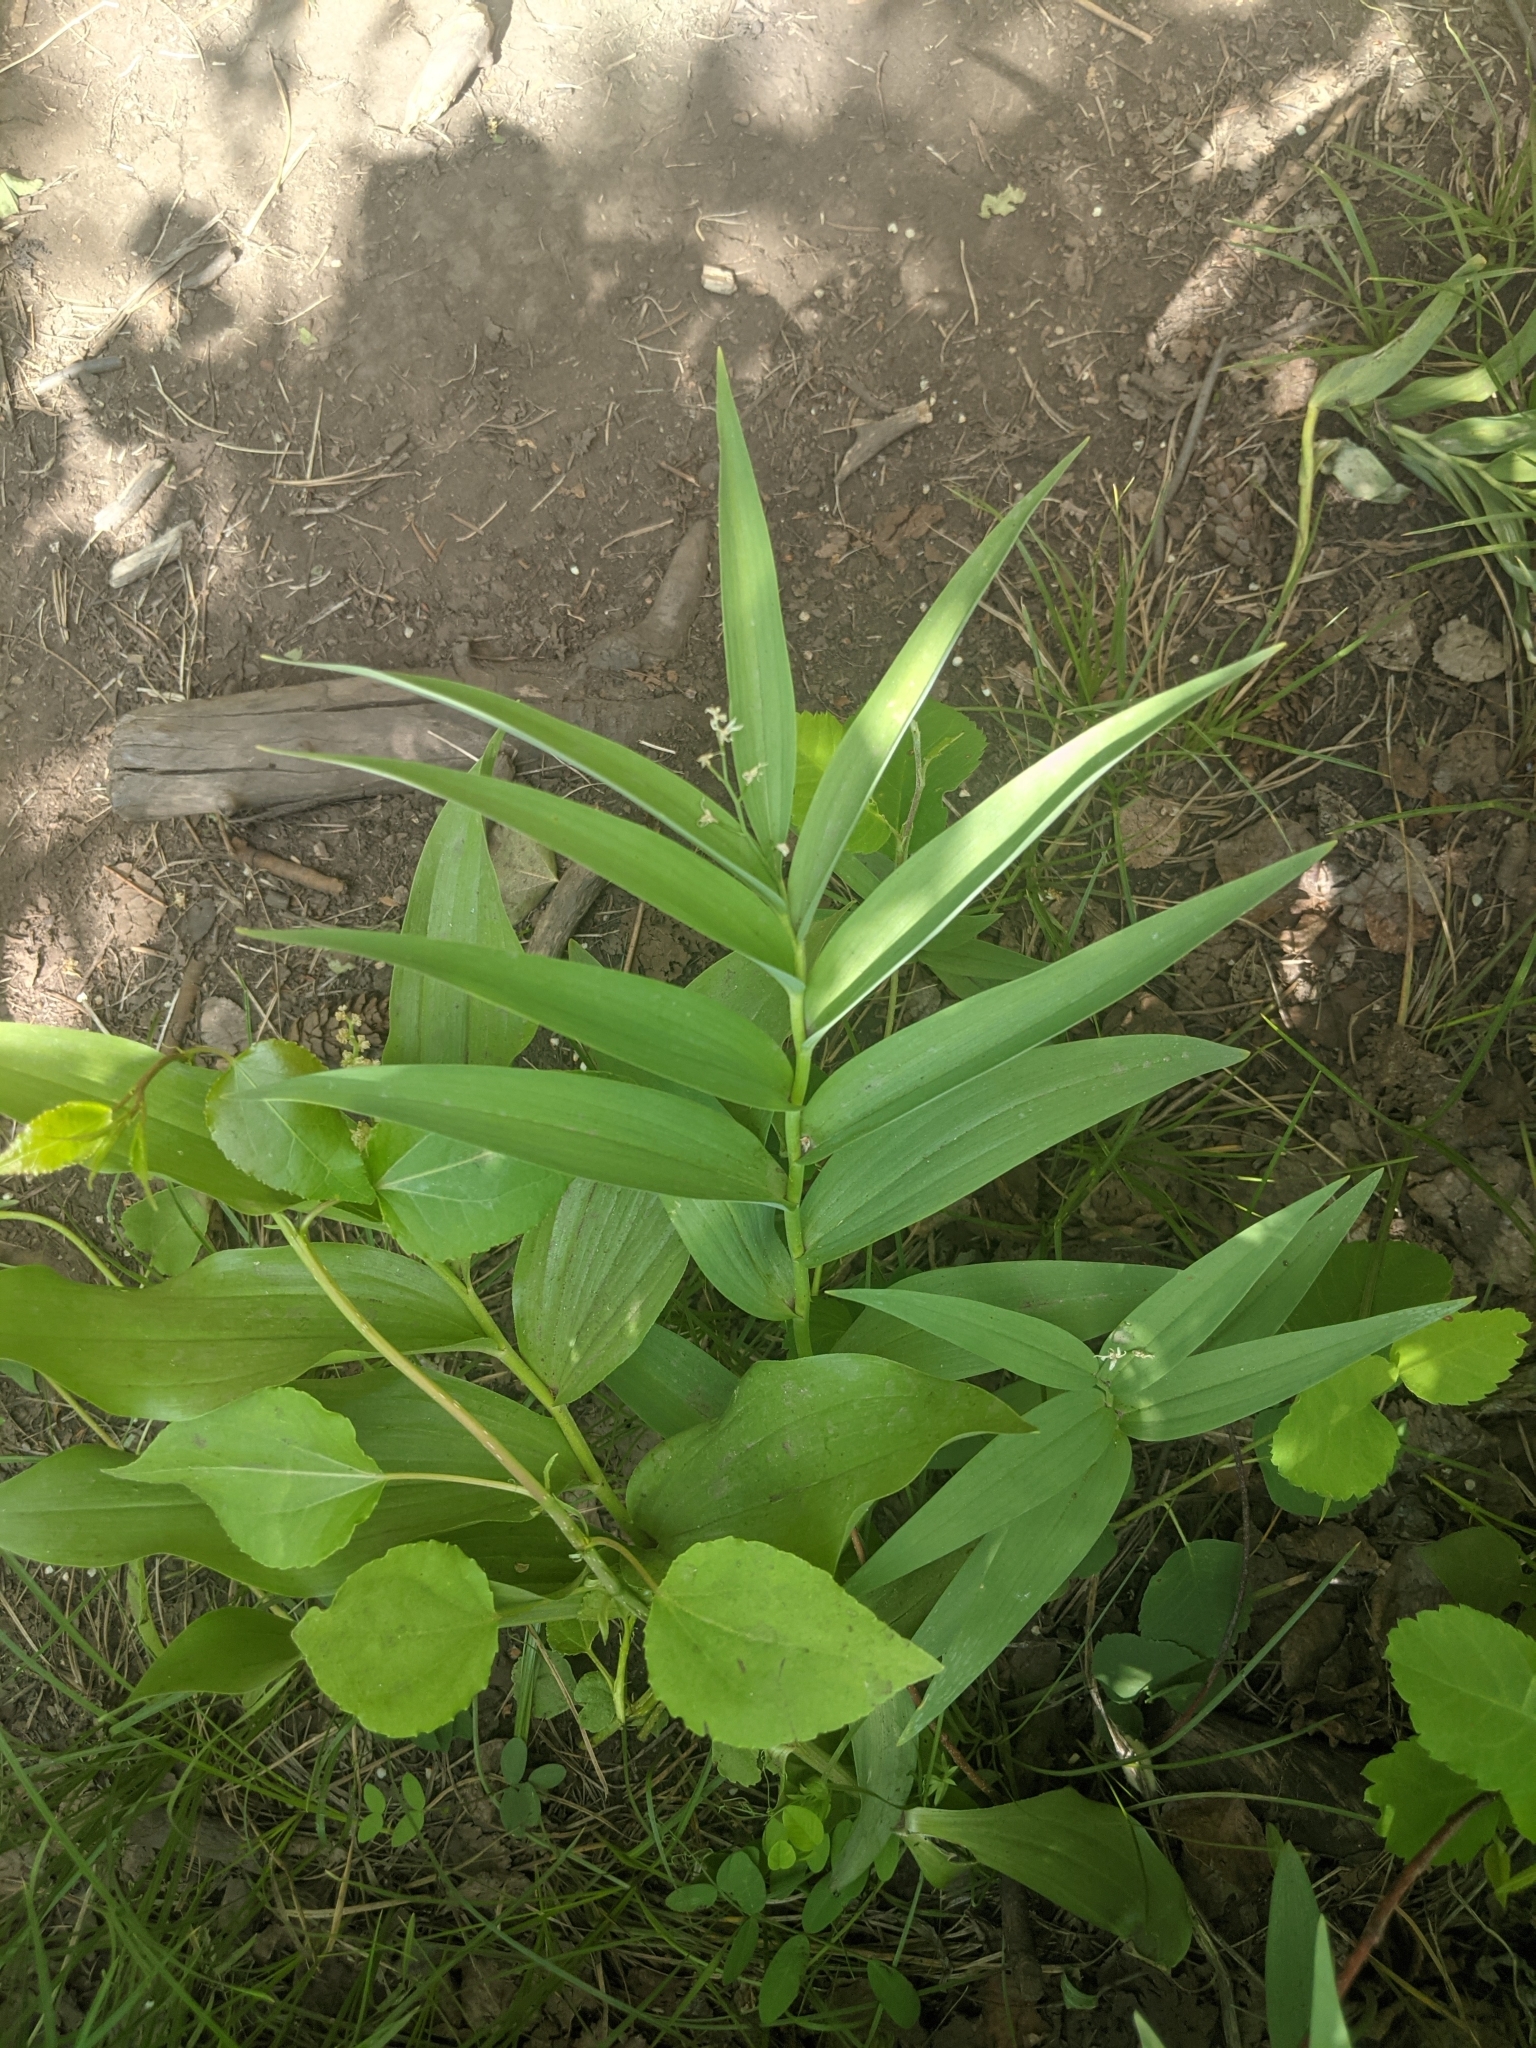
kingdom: Plantae
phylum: Tracheophyta
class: Liliopsida
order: Asparagales
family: Asparagaceae
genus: Maianthemum
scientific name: Maianthemum stellatum
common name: Little false solomon's seal
